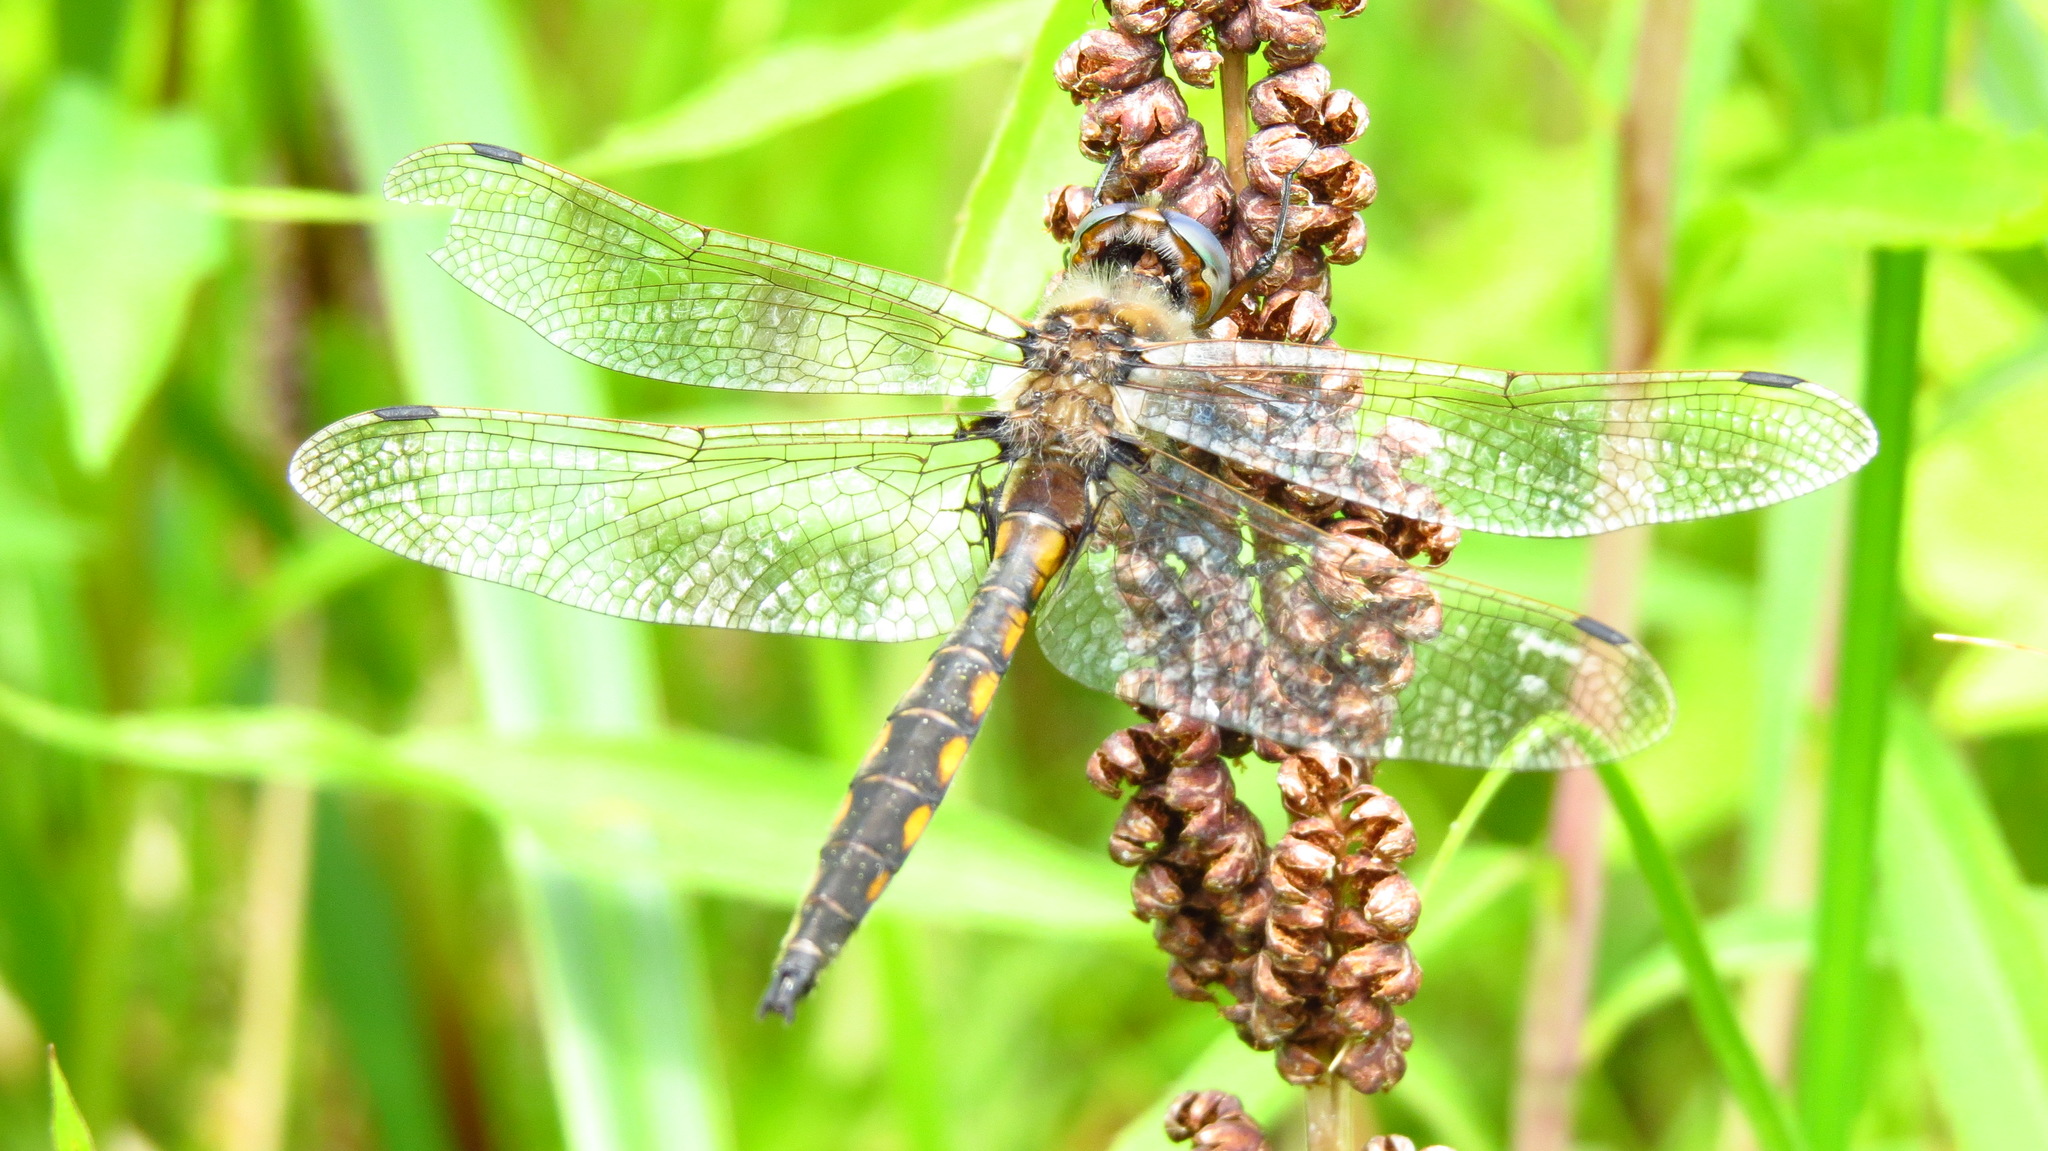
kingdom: Animalia
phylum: Arthropoda
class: Insecta
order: Odonata
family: Corduliidae
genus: Epitheca
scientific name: Epitheca canis
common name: Beaverpond baskettail
